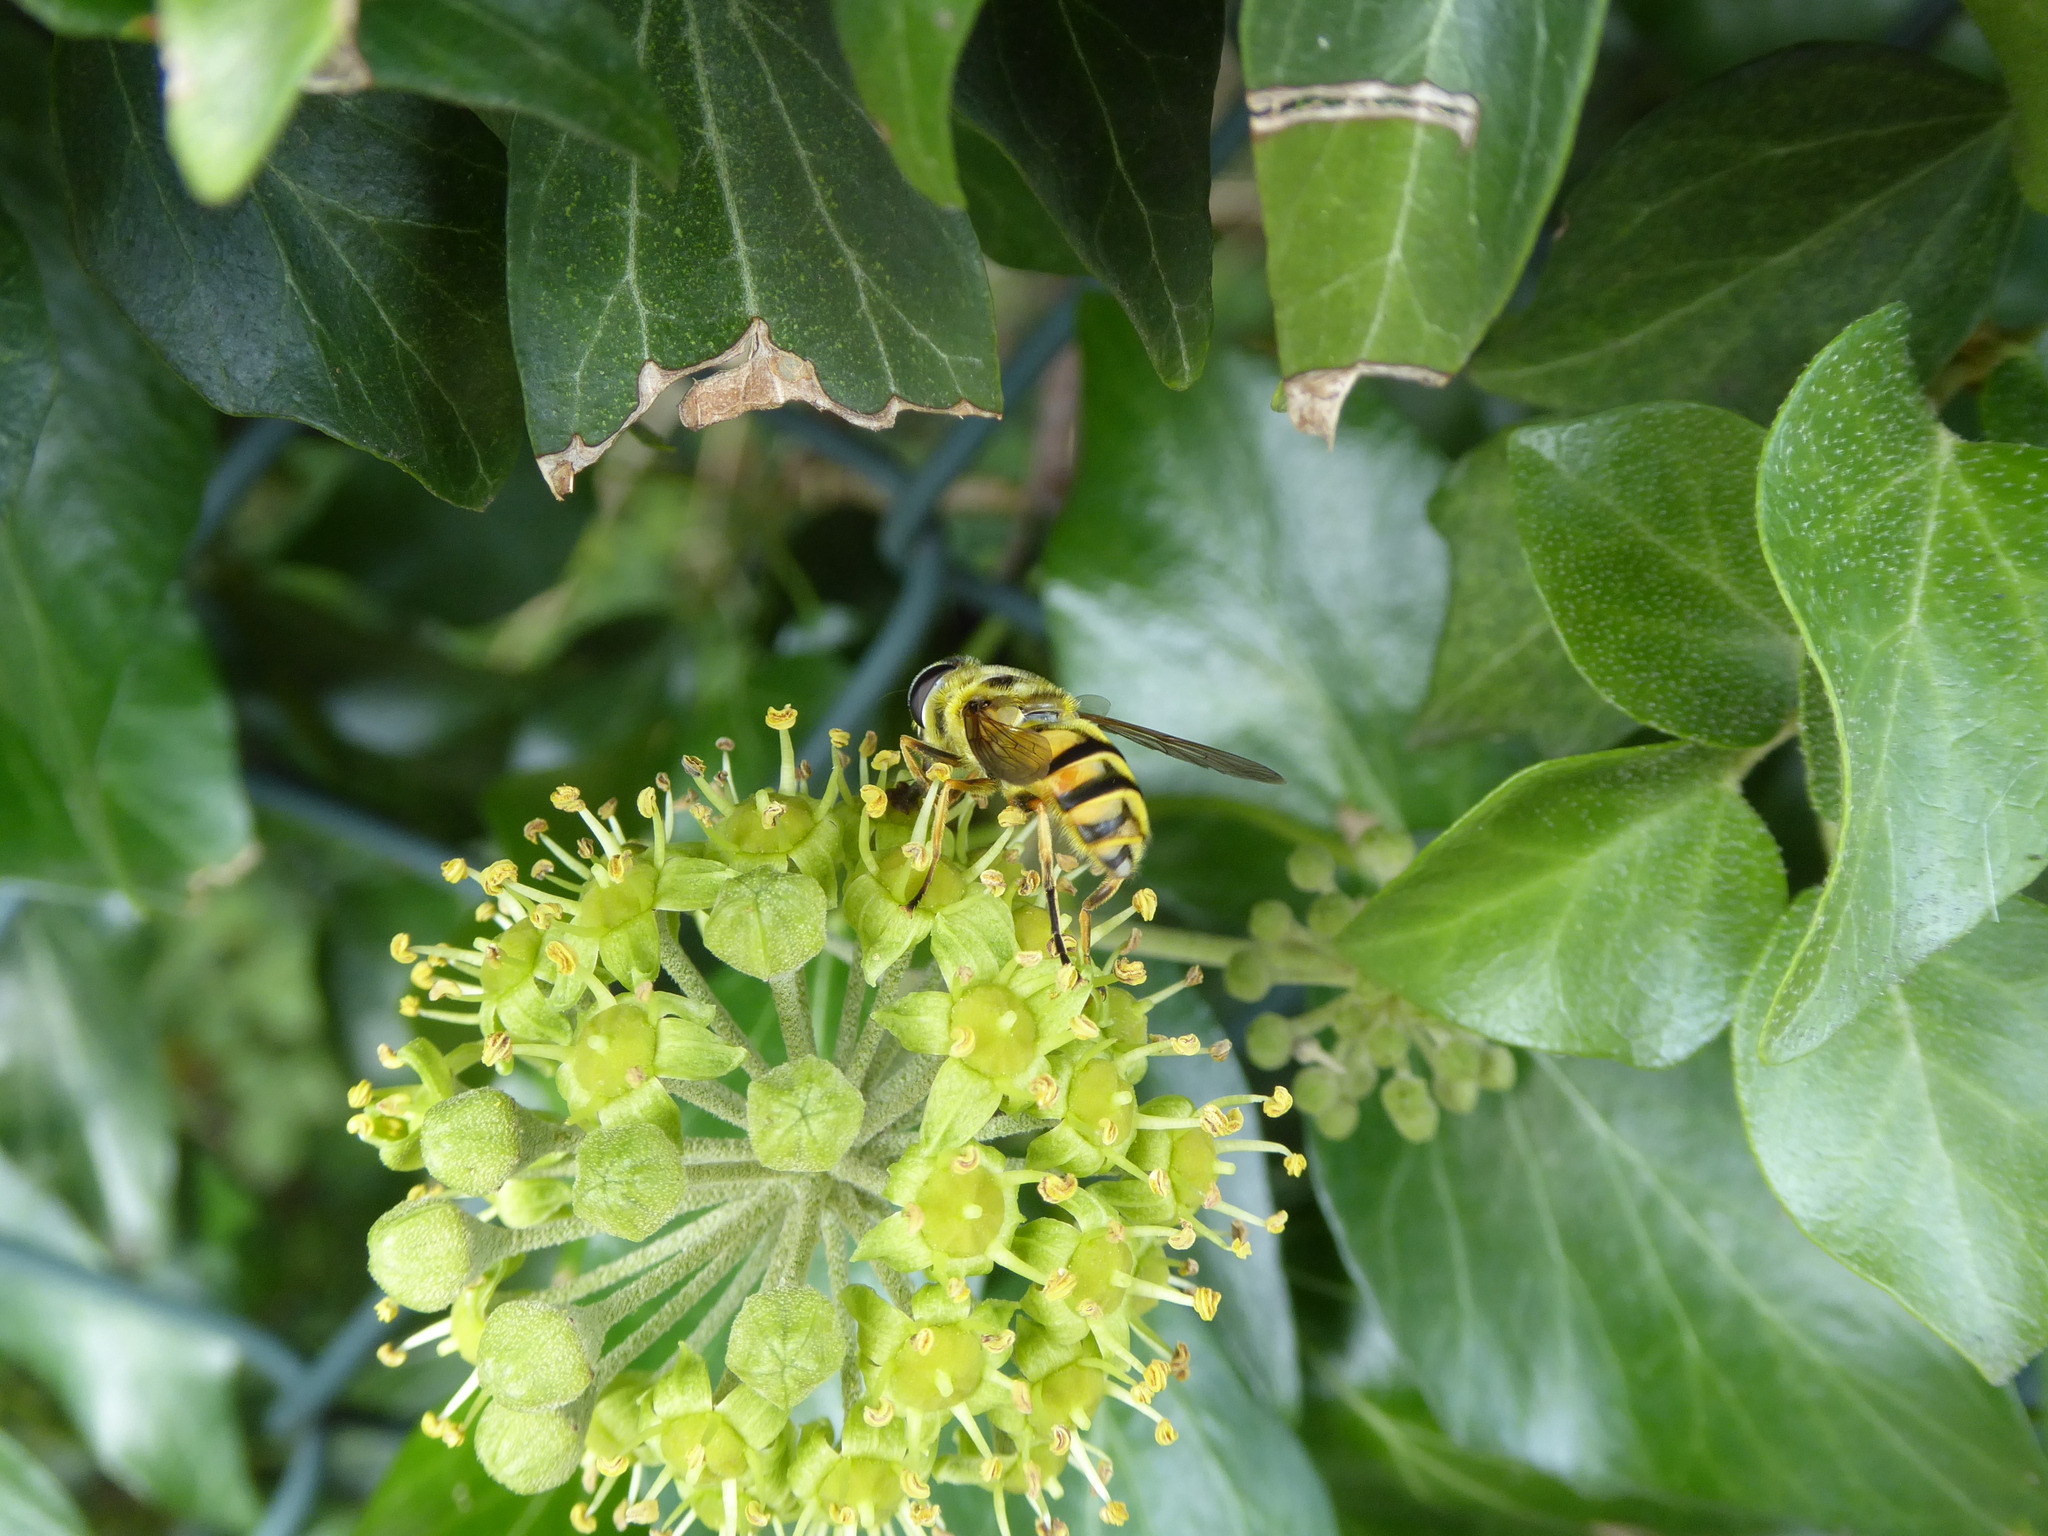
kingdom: Animalia
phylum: Arthropoda
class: Insecta
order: Diptera
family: Syrphidae
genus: Myathropa
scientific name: Myathropa florea
